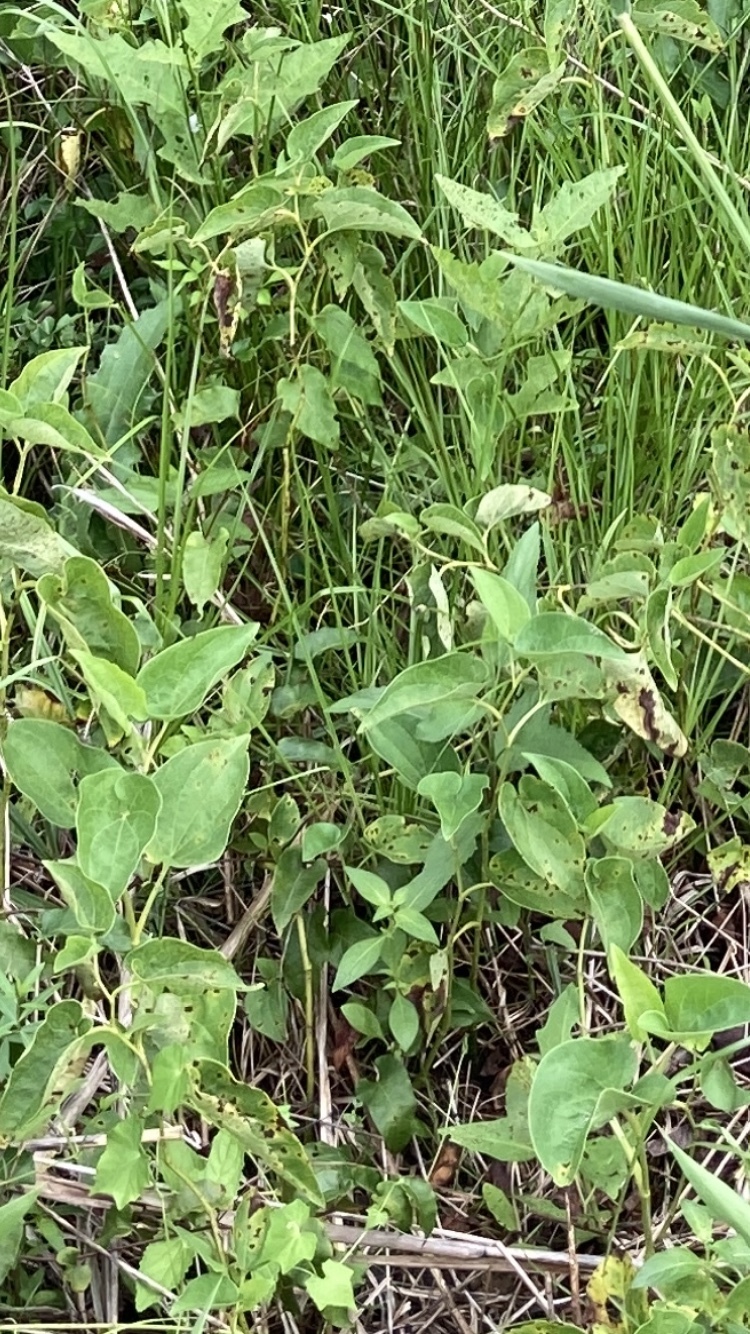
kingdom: Plantae
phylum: Tracheophyta
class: Magnoliopsida
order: Piperales
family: Saururaceae
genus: Saururus
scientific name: Saururus cernuus
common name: Lizard's-tail
